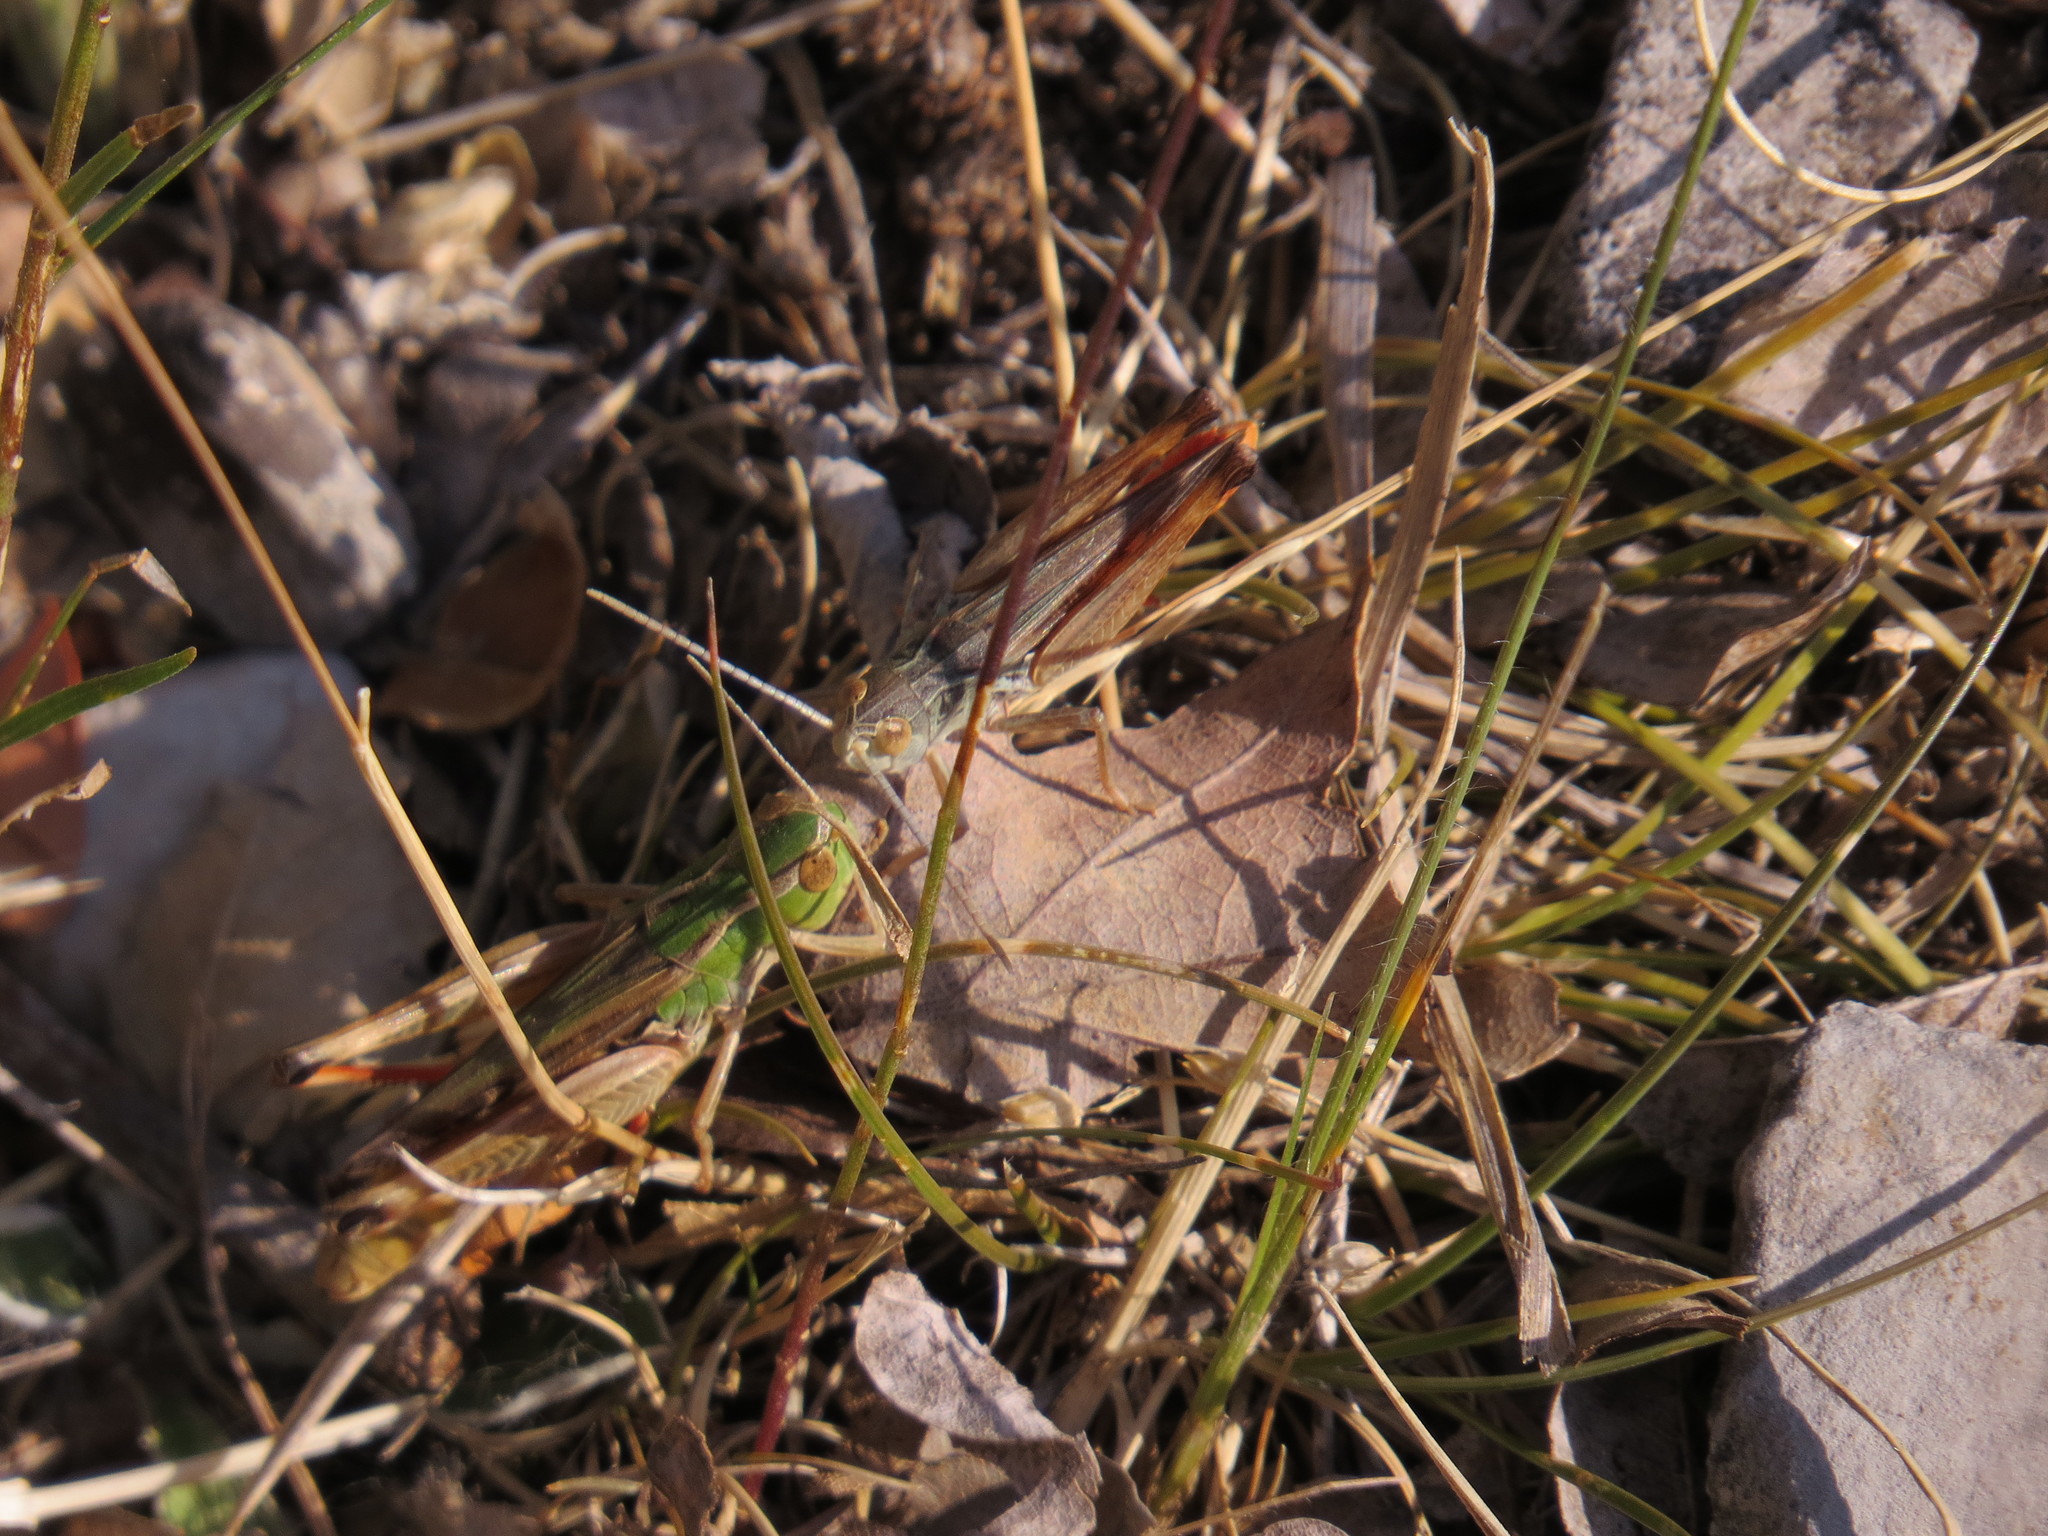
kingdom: Animalia
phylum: Arthropoda
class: Insecta
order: Orthoptera
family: Acrididae
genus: Stenobothrus
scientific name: Stenobothrus fischeri
